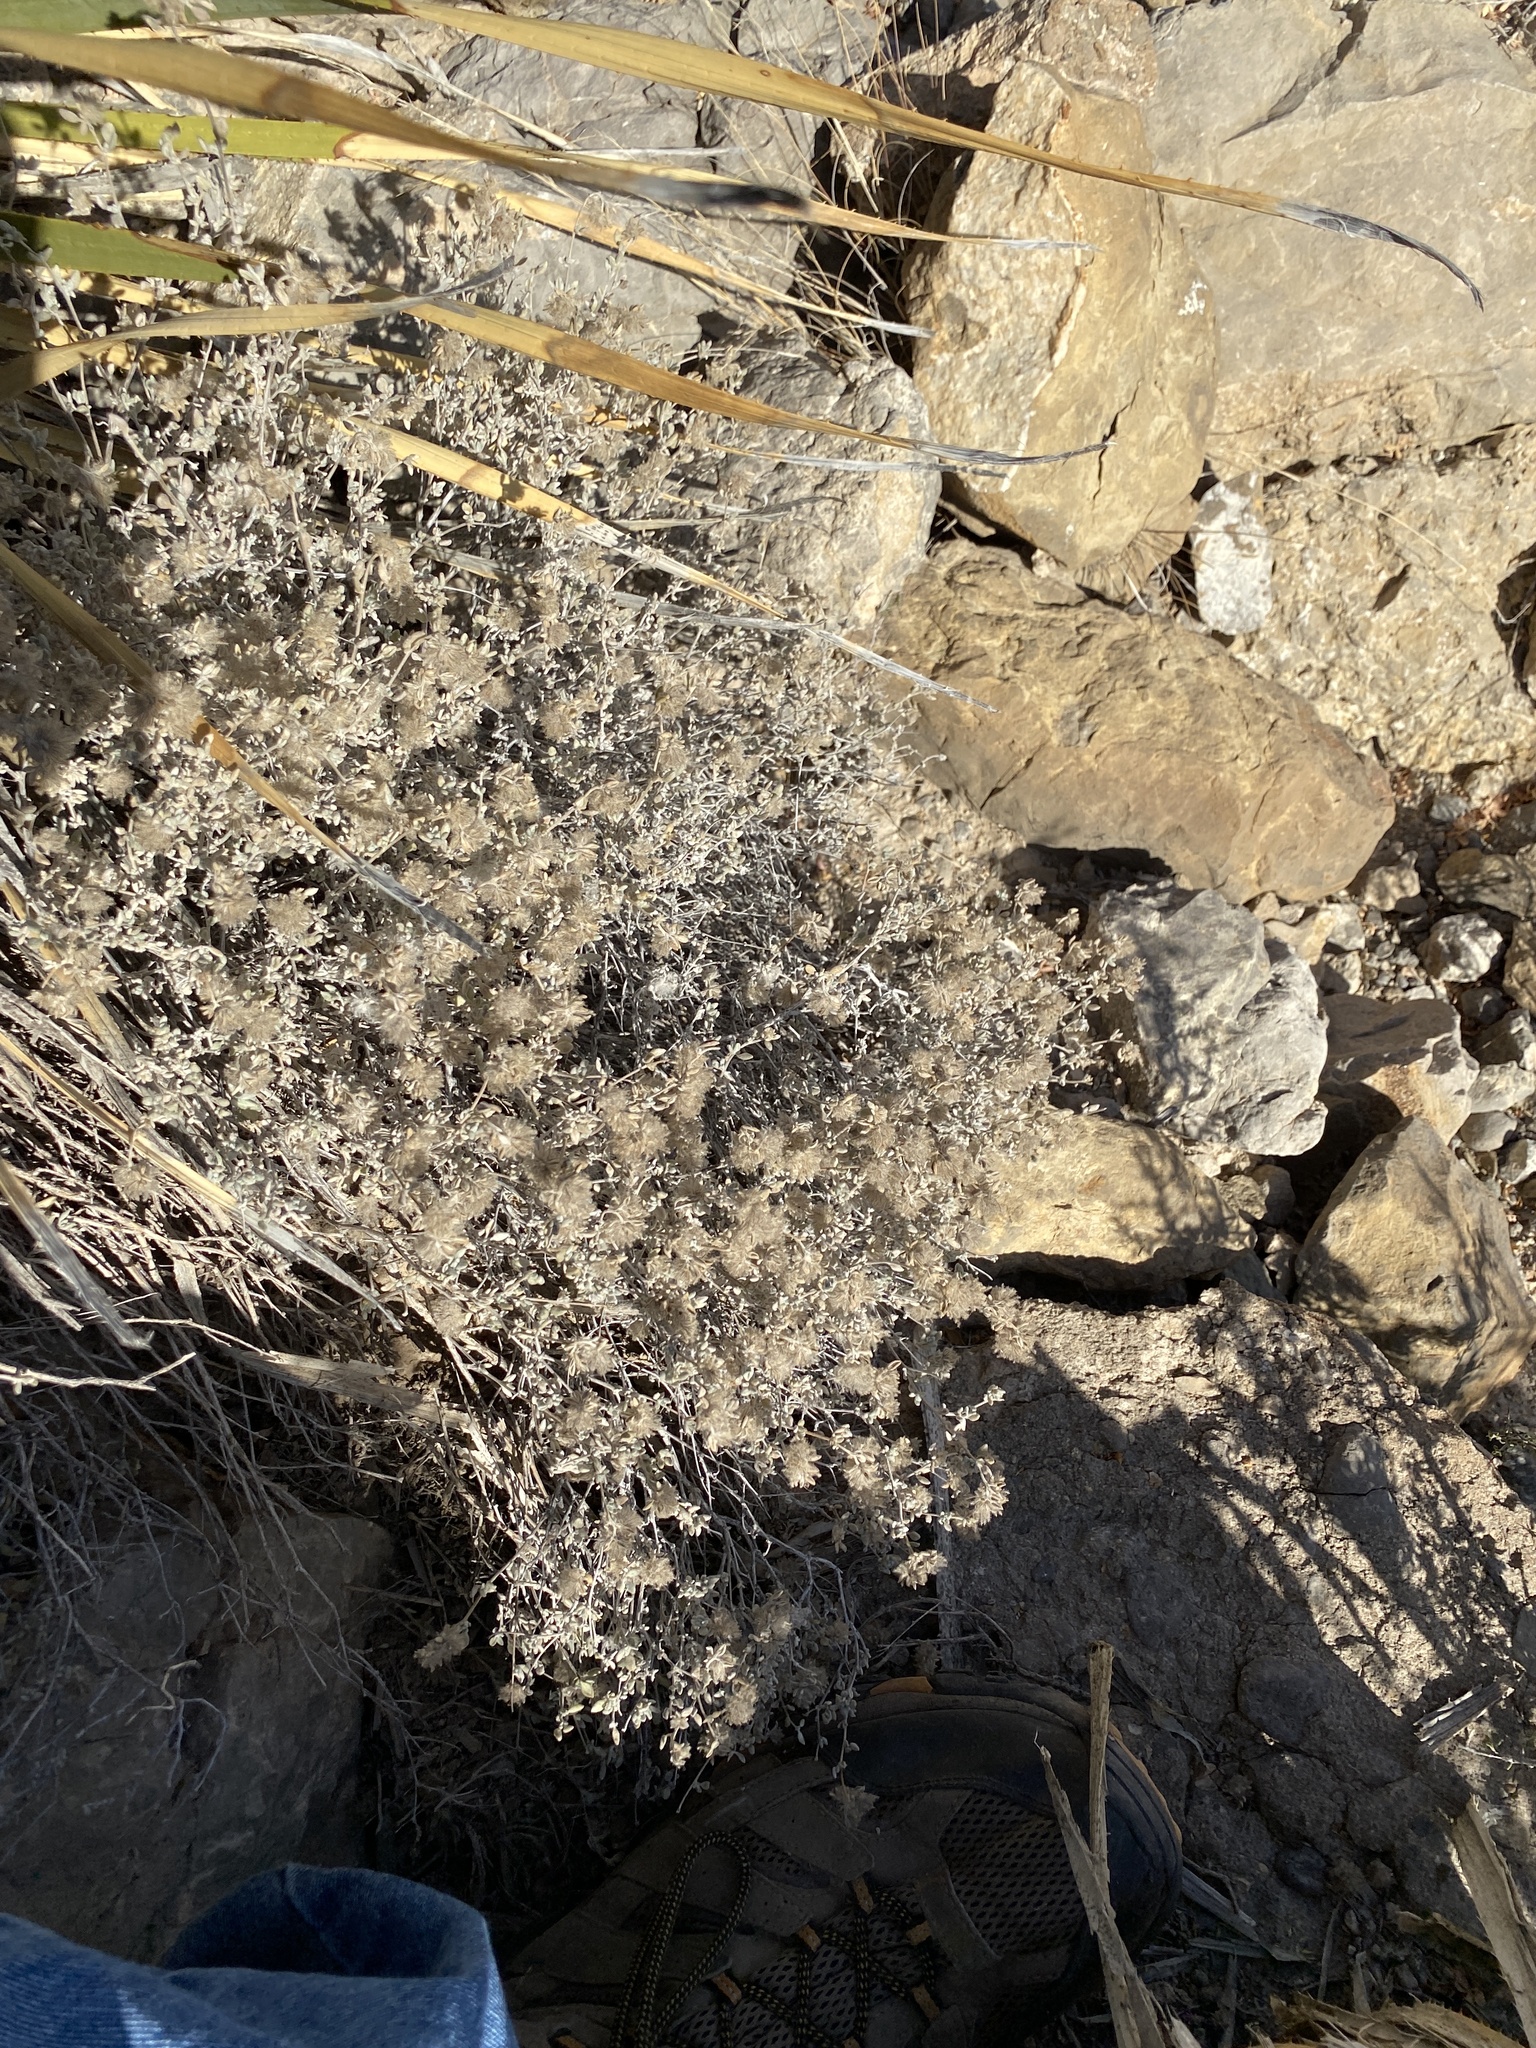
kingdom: Plantae
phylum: Tracheophyta
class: Magnoliopsida
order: Boraginales
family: Ehretiaceae
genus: Tiquilia
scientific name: Tiquilia greggii
